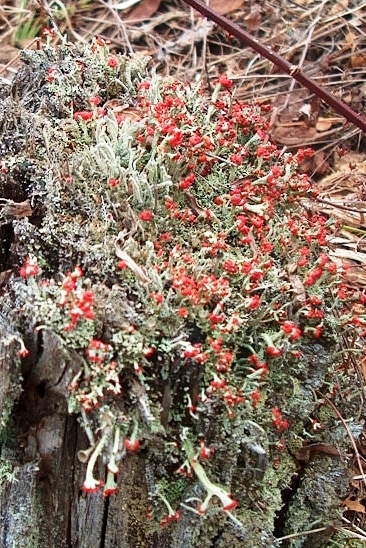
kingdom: Fungi
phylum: Ascomycota
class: Lecanoromycetes
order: Lecanorales
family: Cladoniaceae
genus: Cladonia
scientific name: Cladonia cristatella
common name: British soldier lichen
